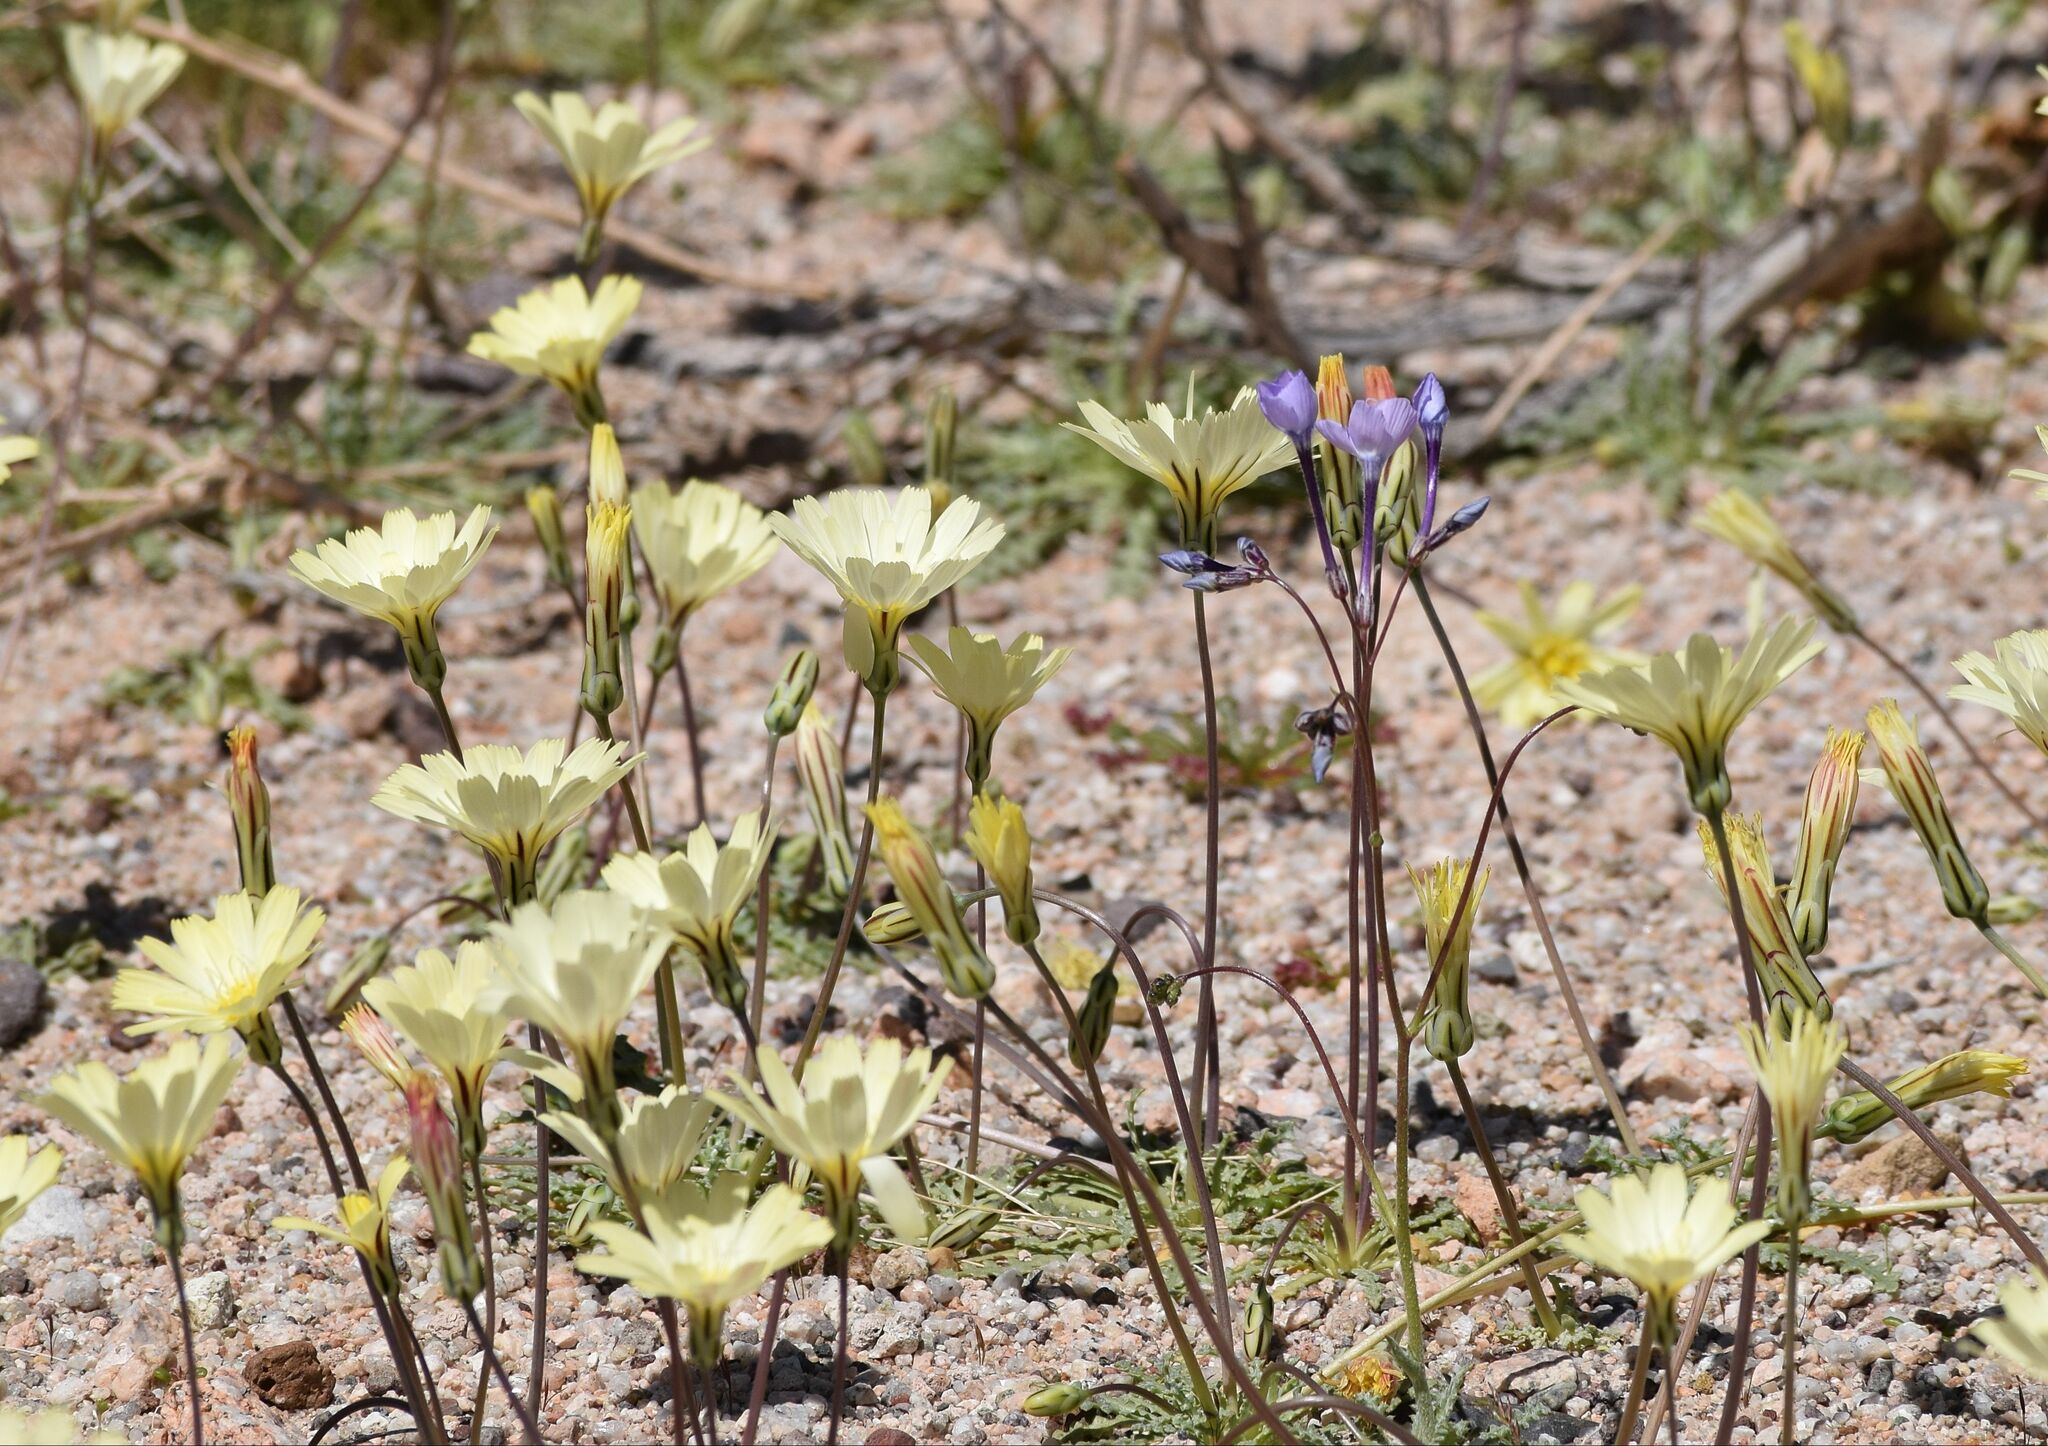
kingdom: Plantae
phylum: Tracheophyta
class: Magnoliopsida
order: Asterales
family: Asteraceae
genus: Anisocoma
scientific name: Anisocoma acaulis
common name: Scalebud
